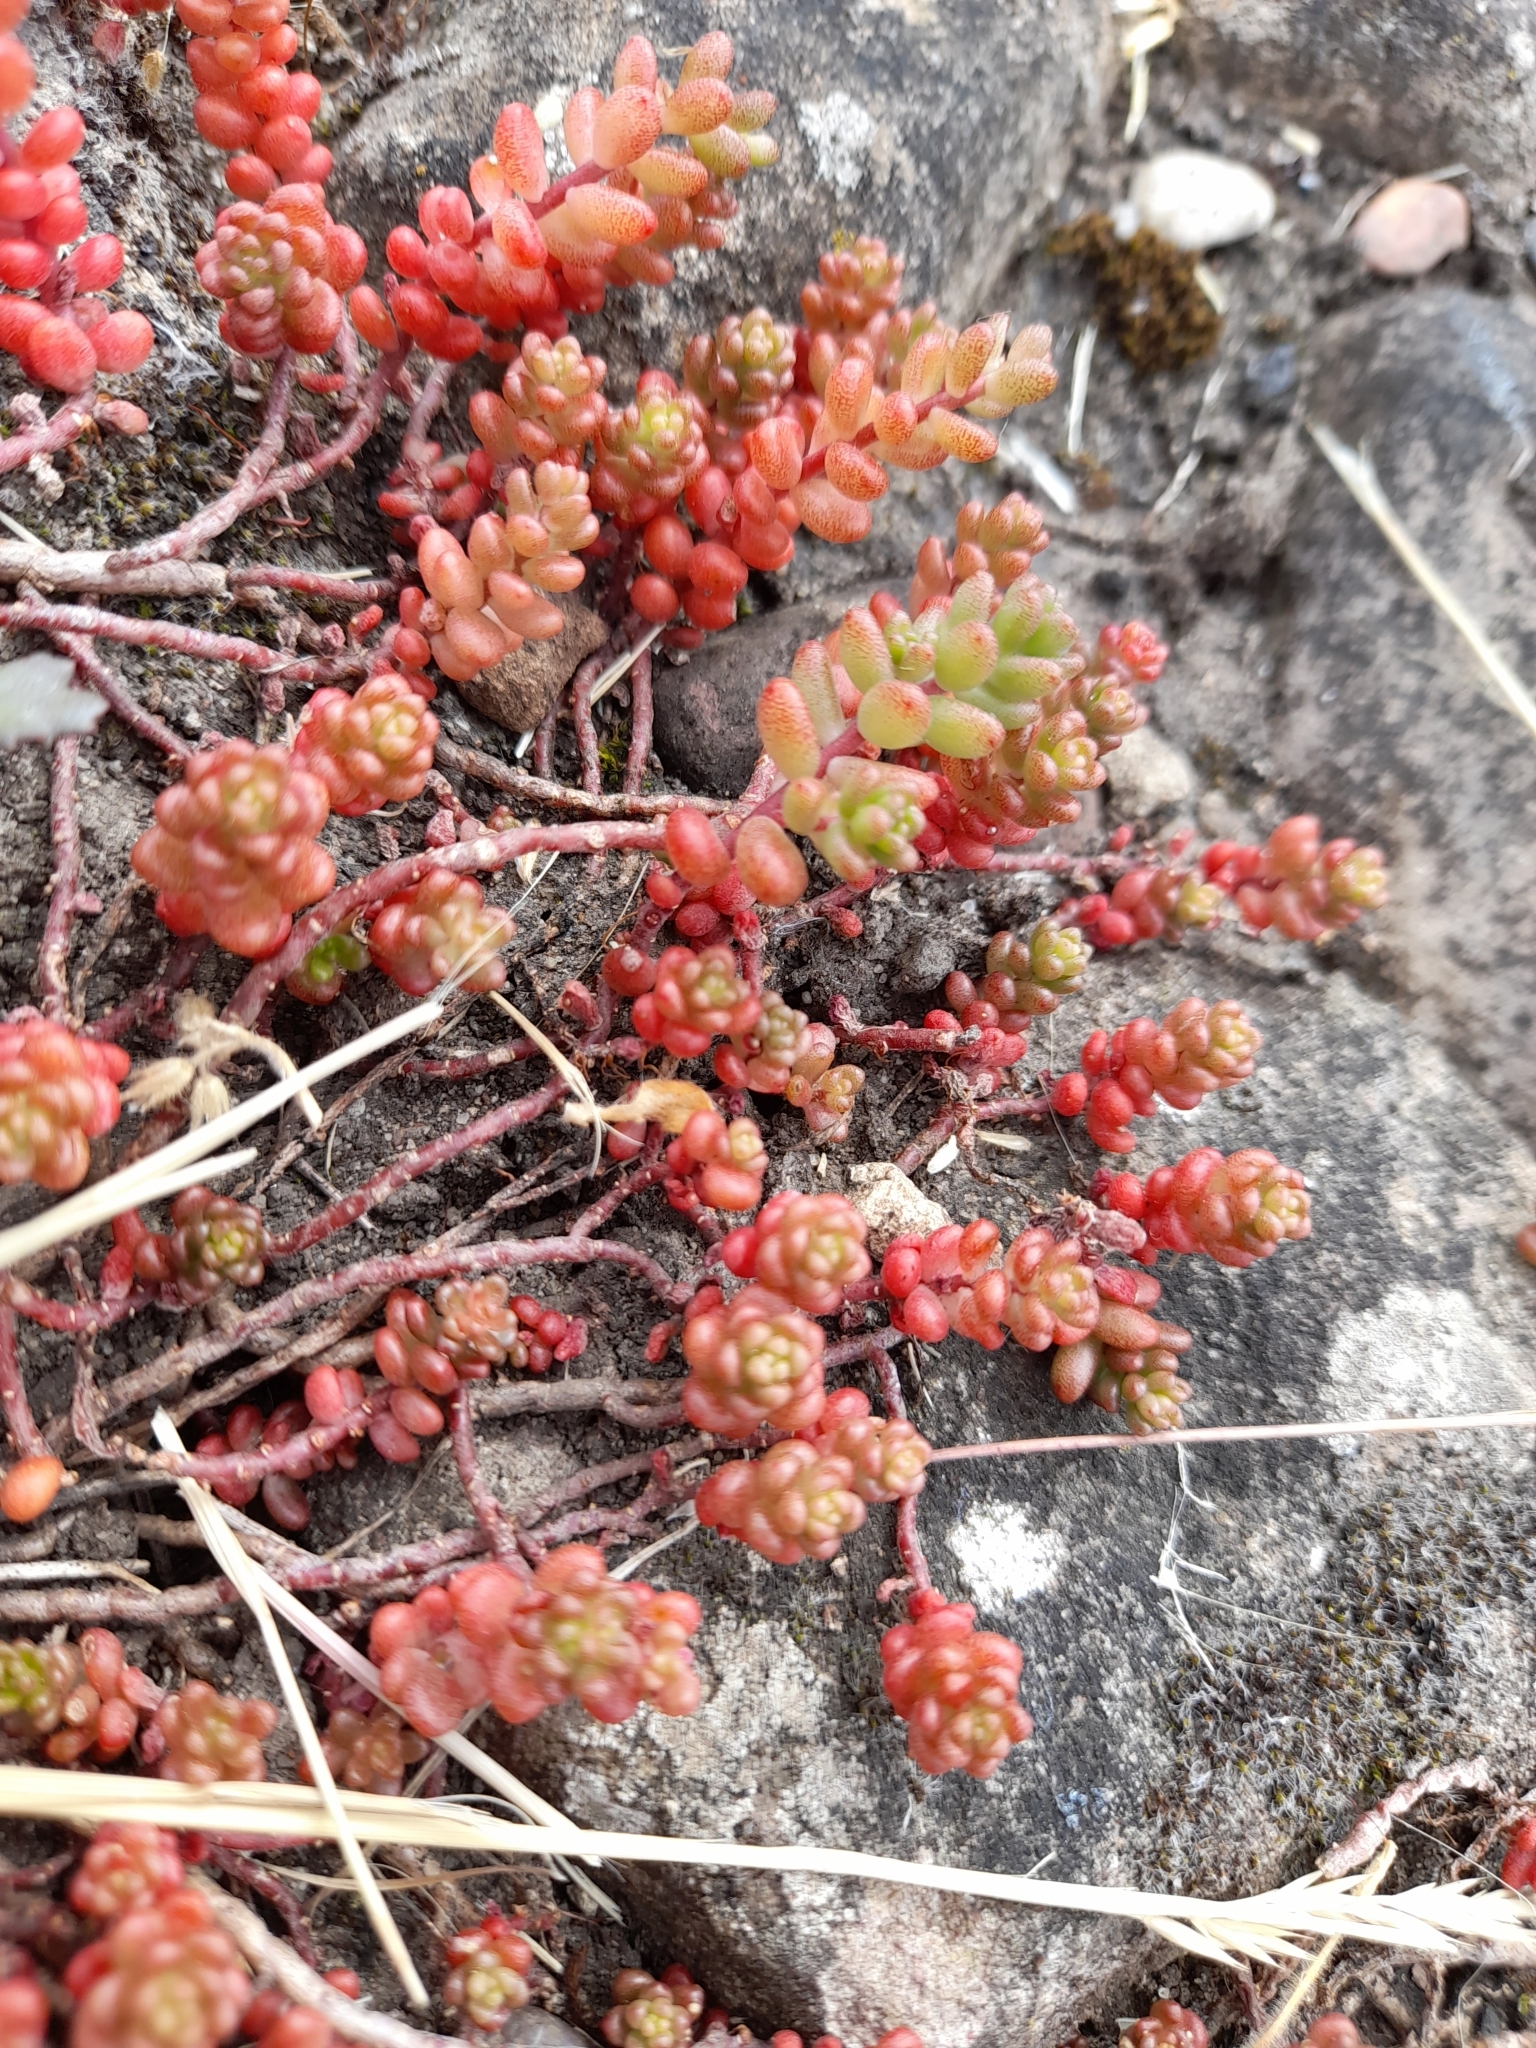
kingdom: Plantae
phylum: Tracheophyta
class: Magnoliopsida
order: Saxifragales
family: Crassulaceae
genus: Sedum
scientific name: Sedum album
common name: White stonecrop
